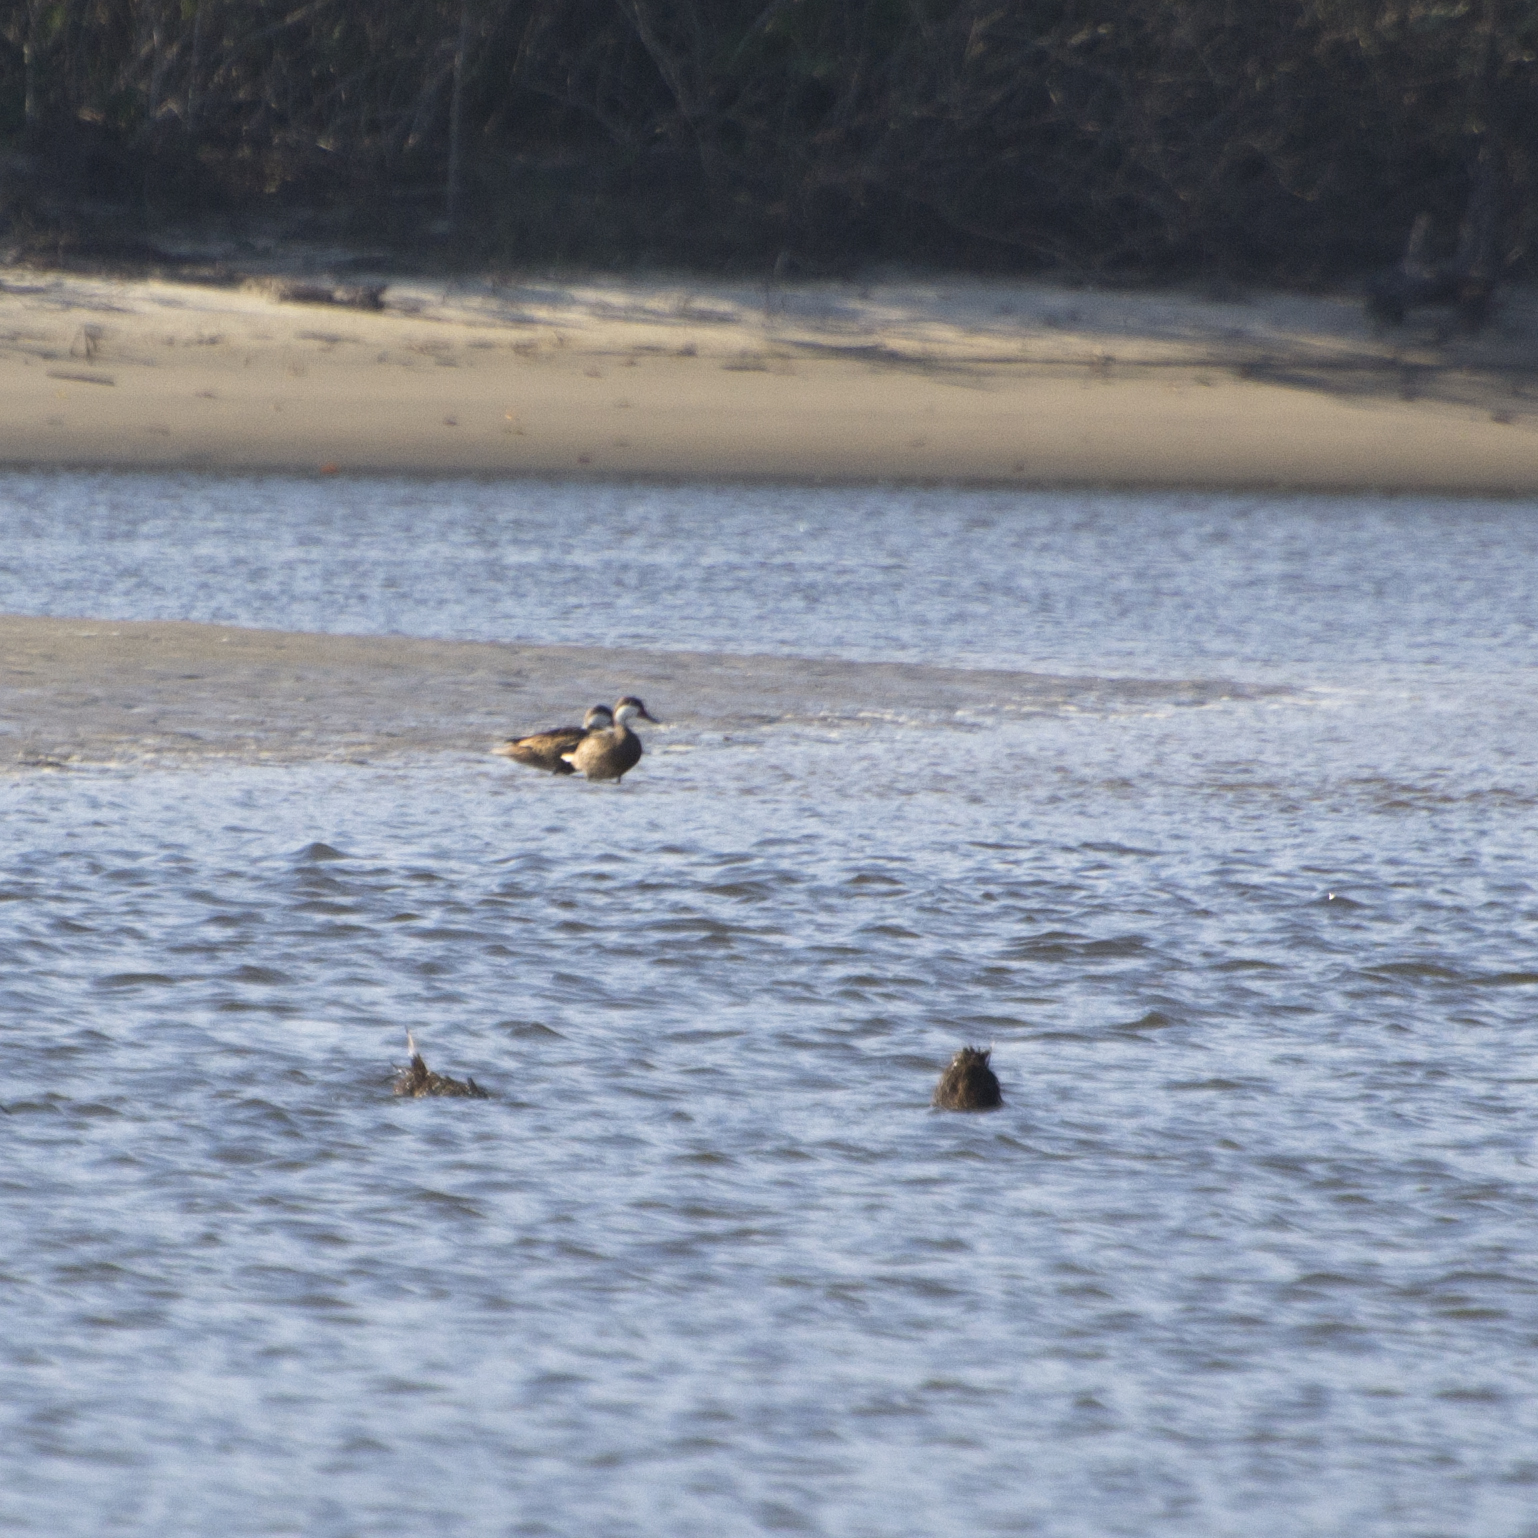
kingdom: Animalia
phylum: Chordata
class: Aves
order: Anseriformes
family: Anatidae
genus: Anas
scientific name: Anas bahamensis
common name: White-cheeked pintail
